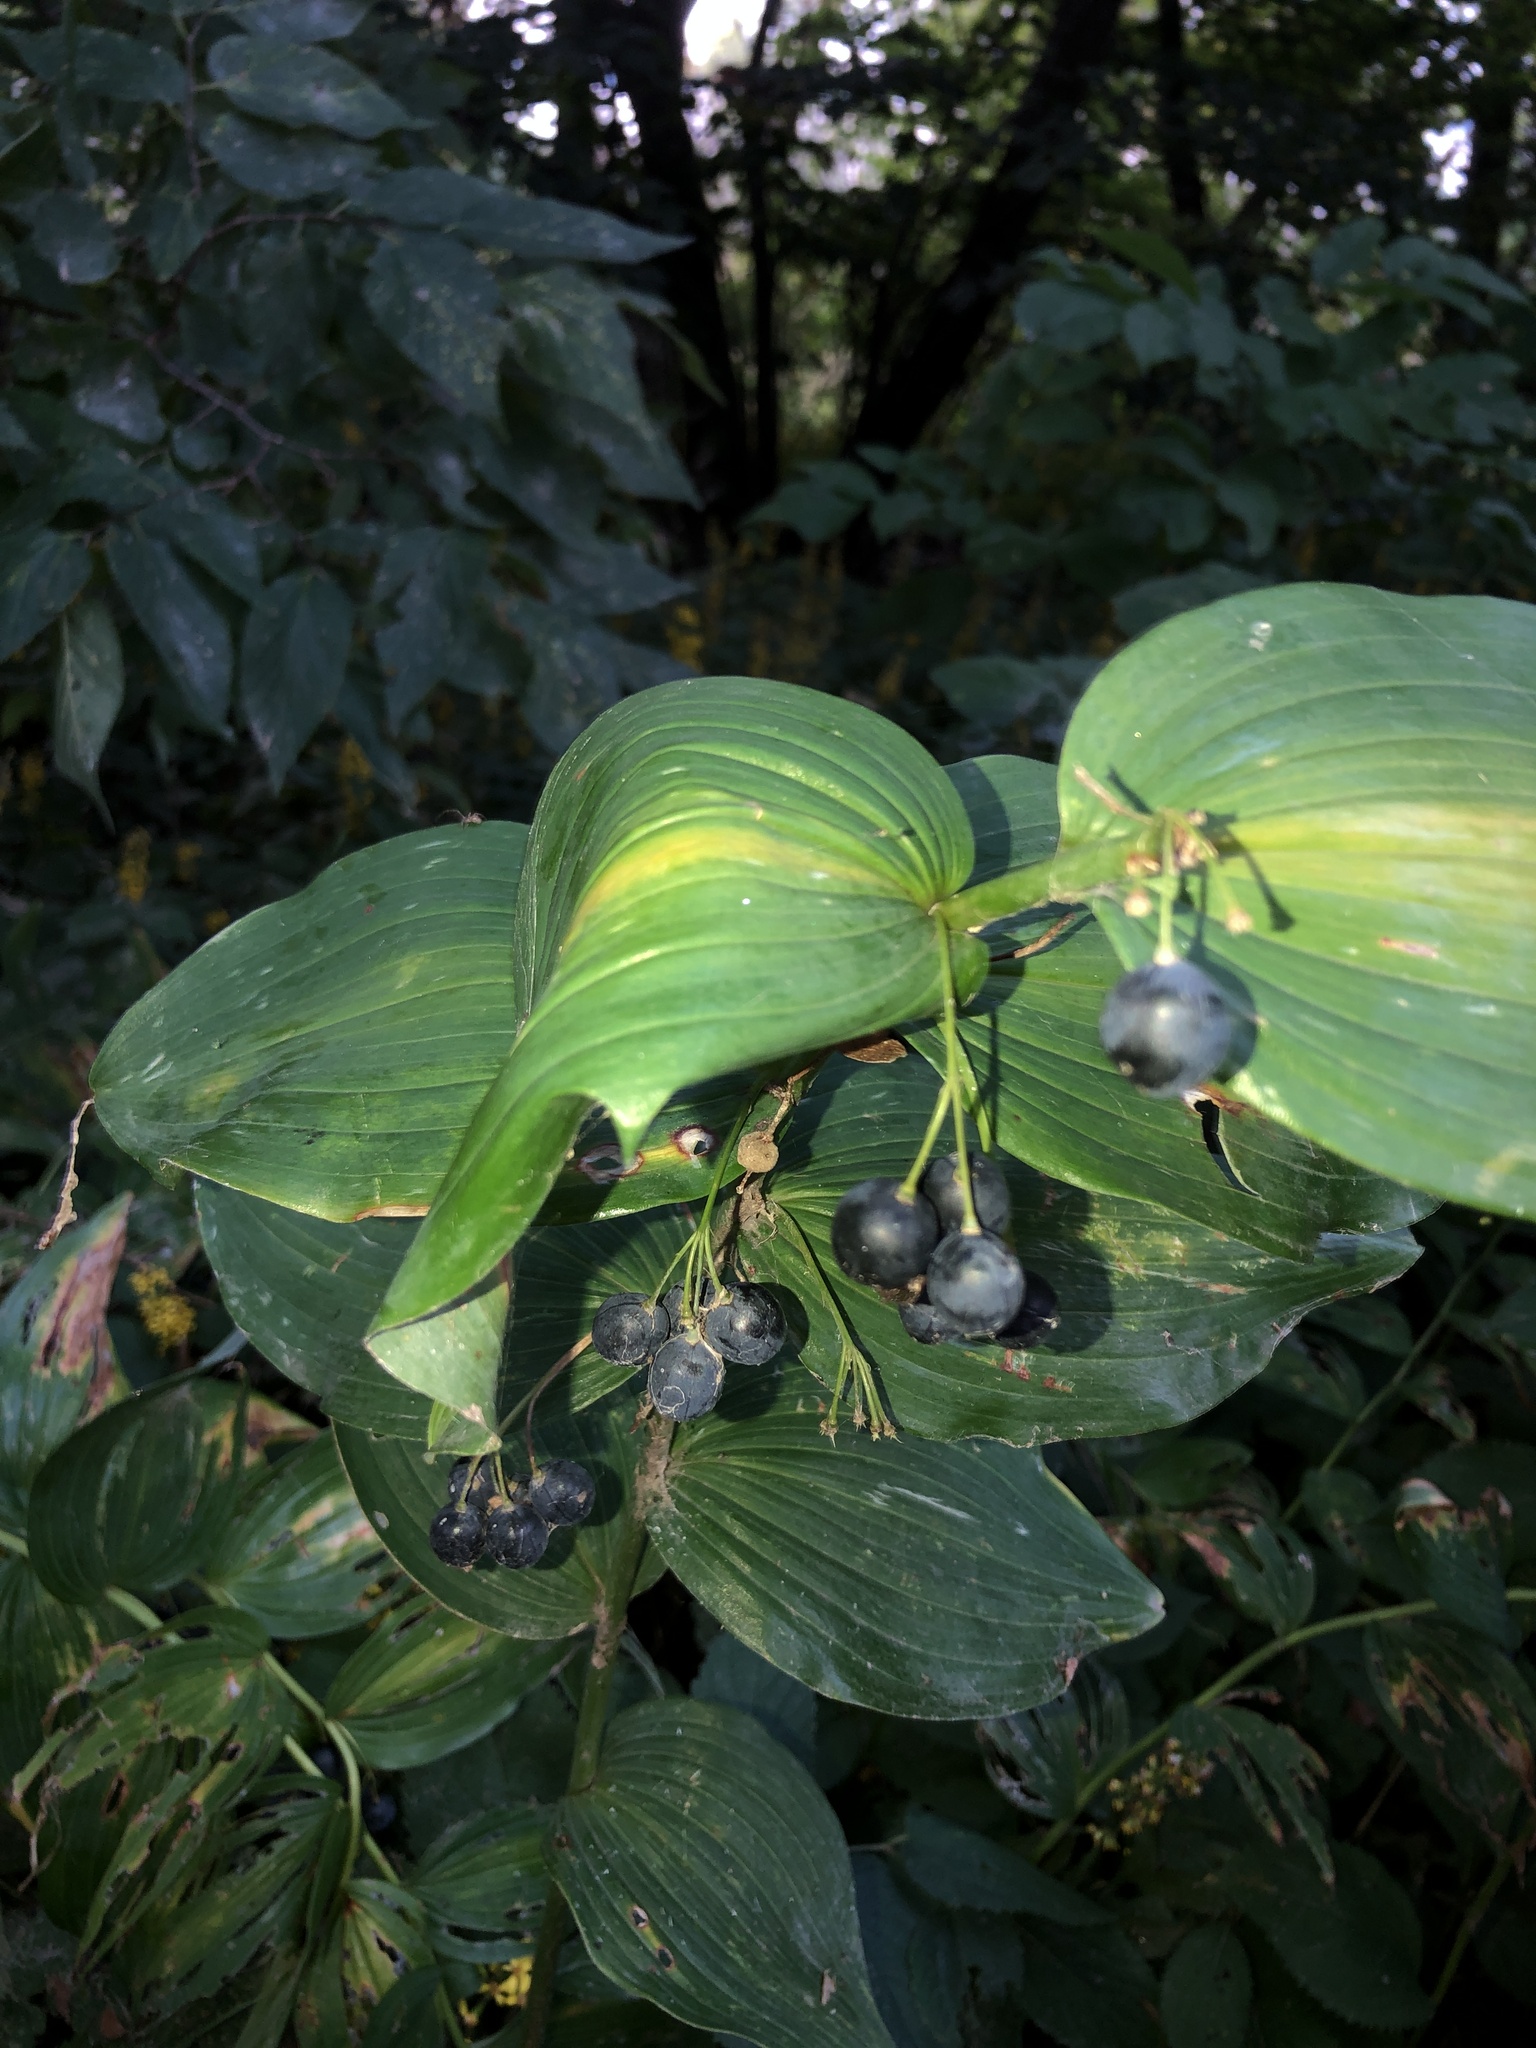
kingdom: Plantae
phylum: Tracheophyta
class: Liliopsida
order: Asparagales
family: Asparagaceae
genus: Polygonatum
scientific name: Polygonatum biflorum
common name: American solomon's-seal
